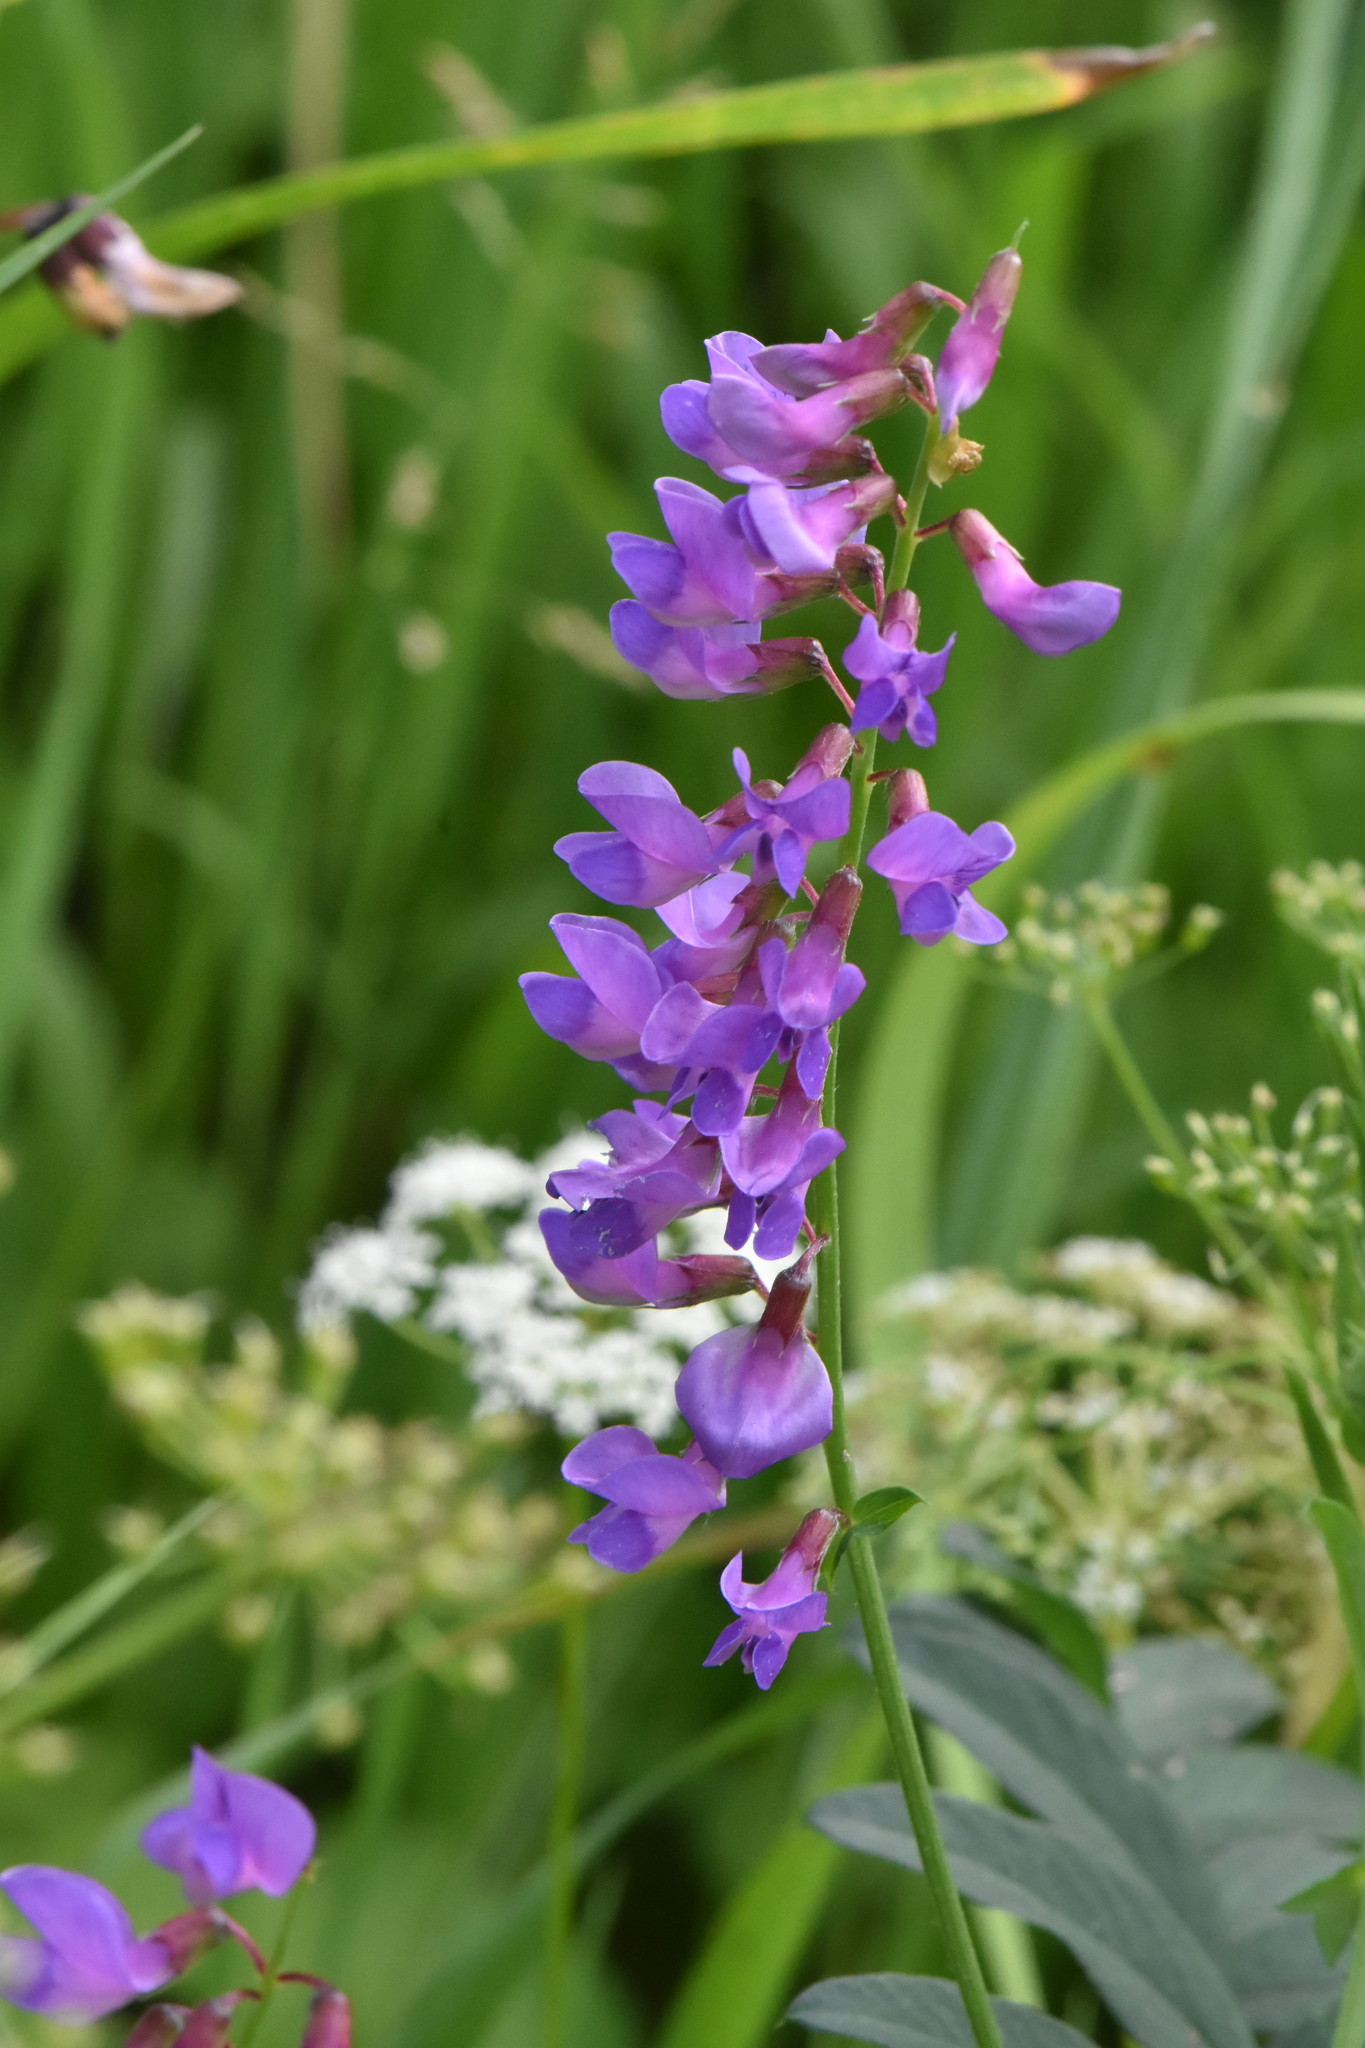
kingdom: Plantae
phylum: Tracheophyta
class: Magnoliopsida
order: Fabales
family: Fabaceae
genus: Vicia
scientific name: Vicia amoena
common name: Cheder ebs
